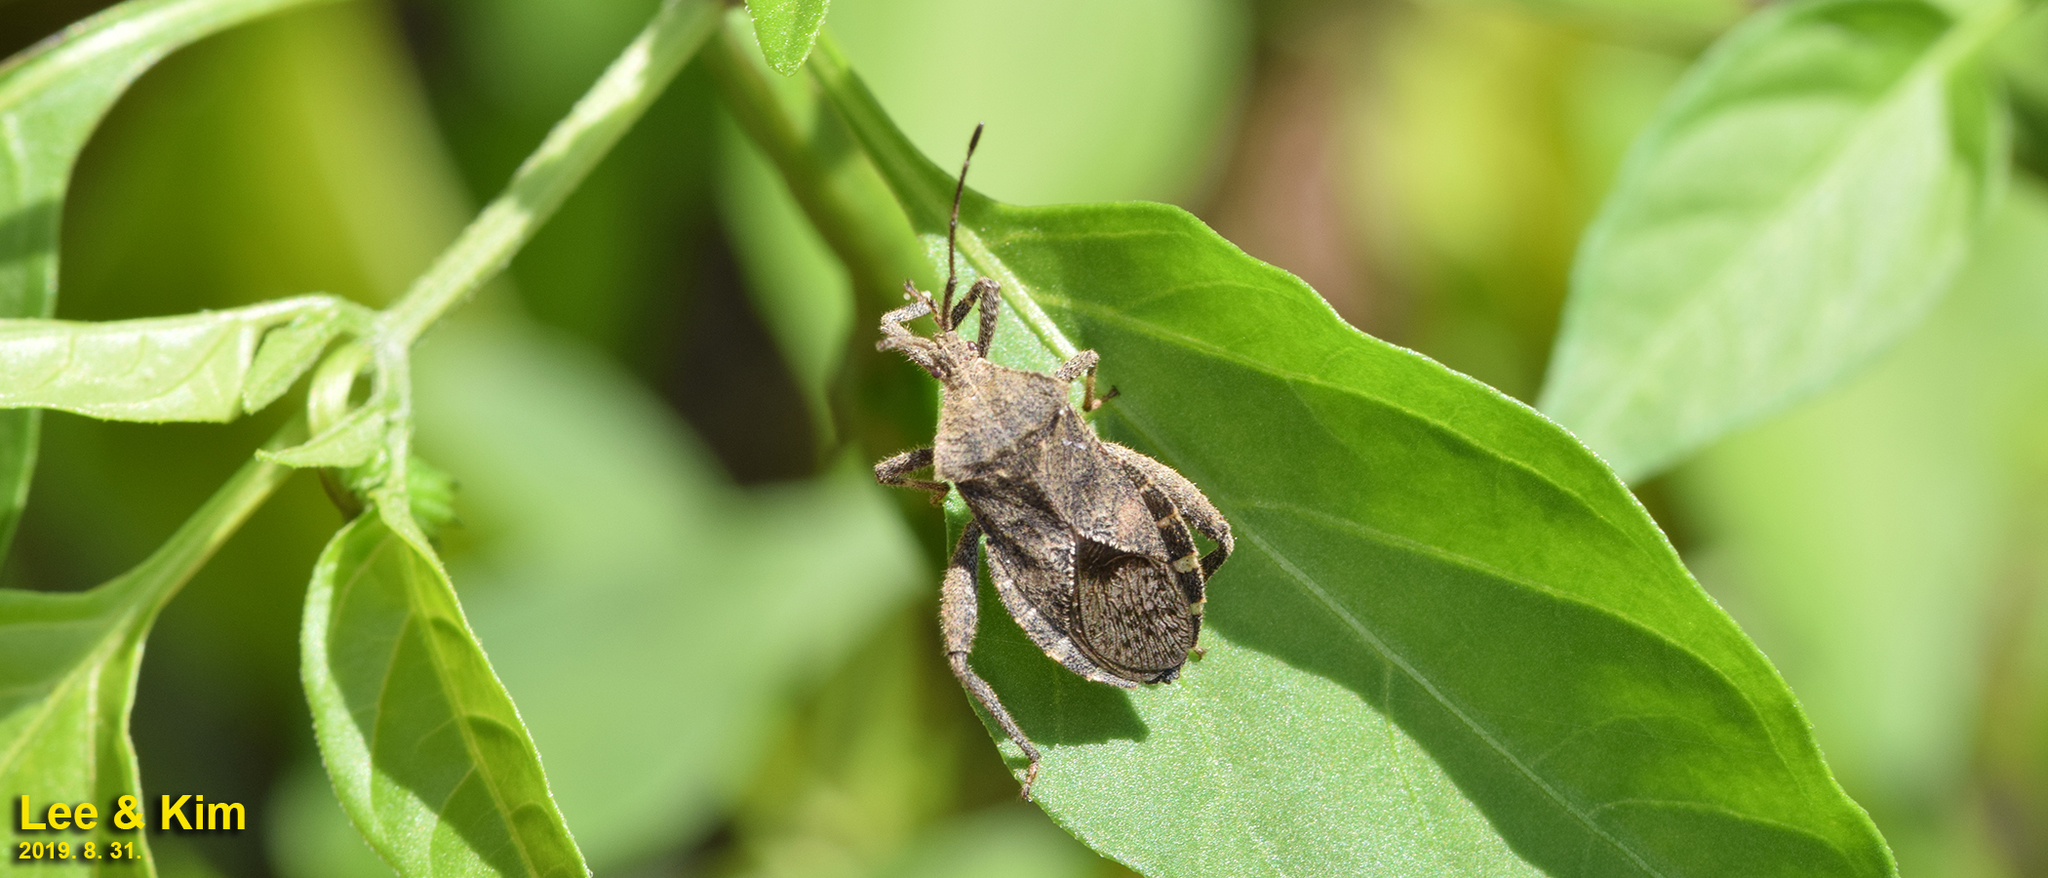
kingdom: Animalia
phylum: Arthropoda
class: Insecta
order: Hemiptera
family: Coreidae
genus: Acanthocoris
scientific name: Acanthocoris sordidus
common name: Winter cherry bug
